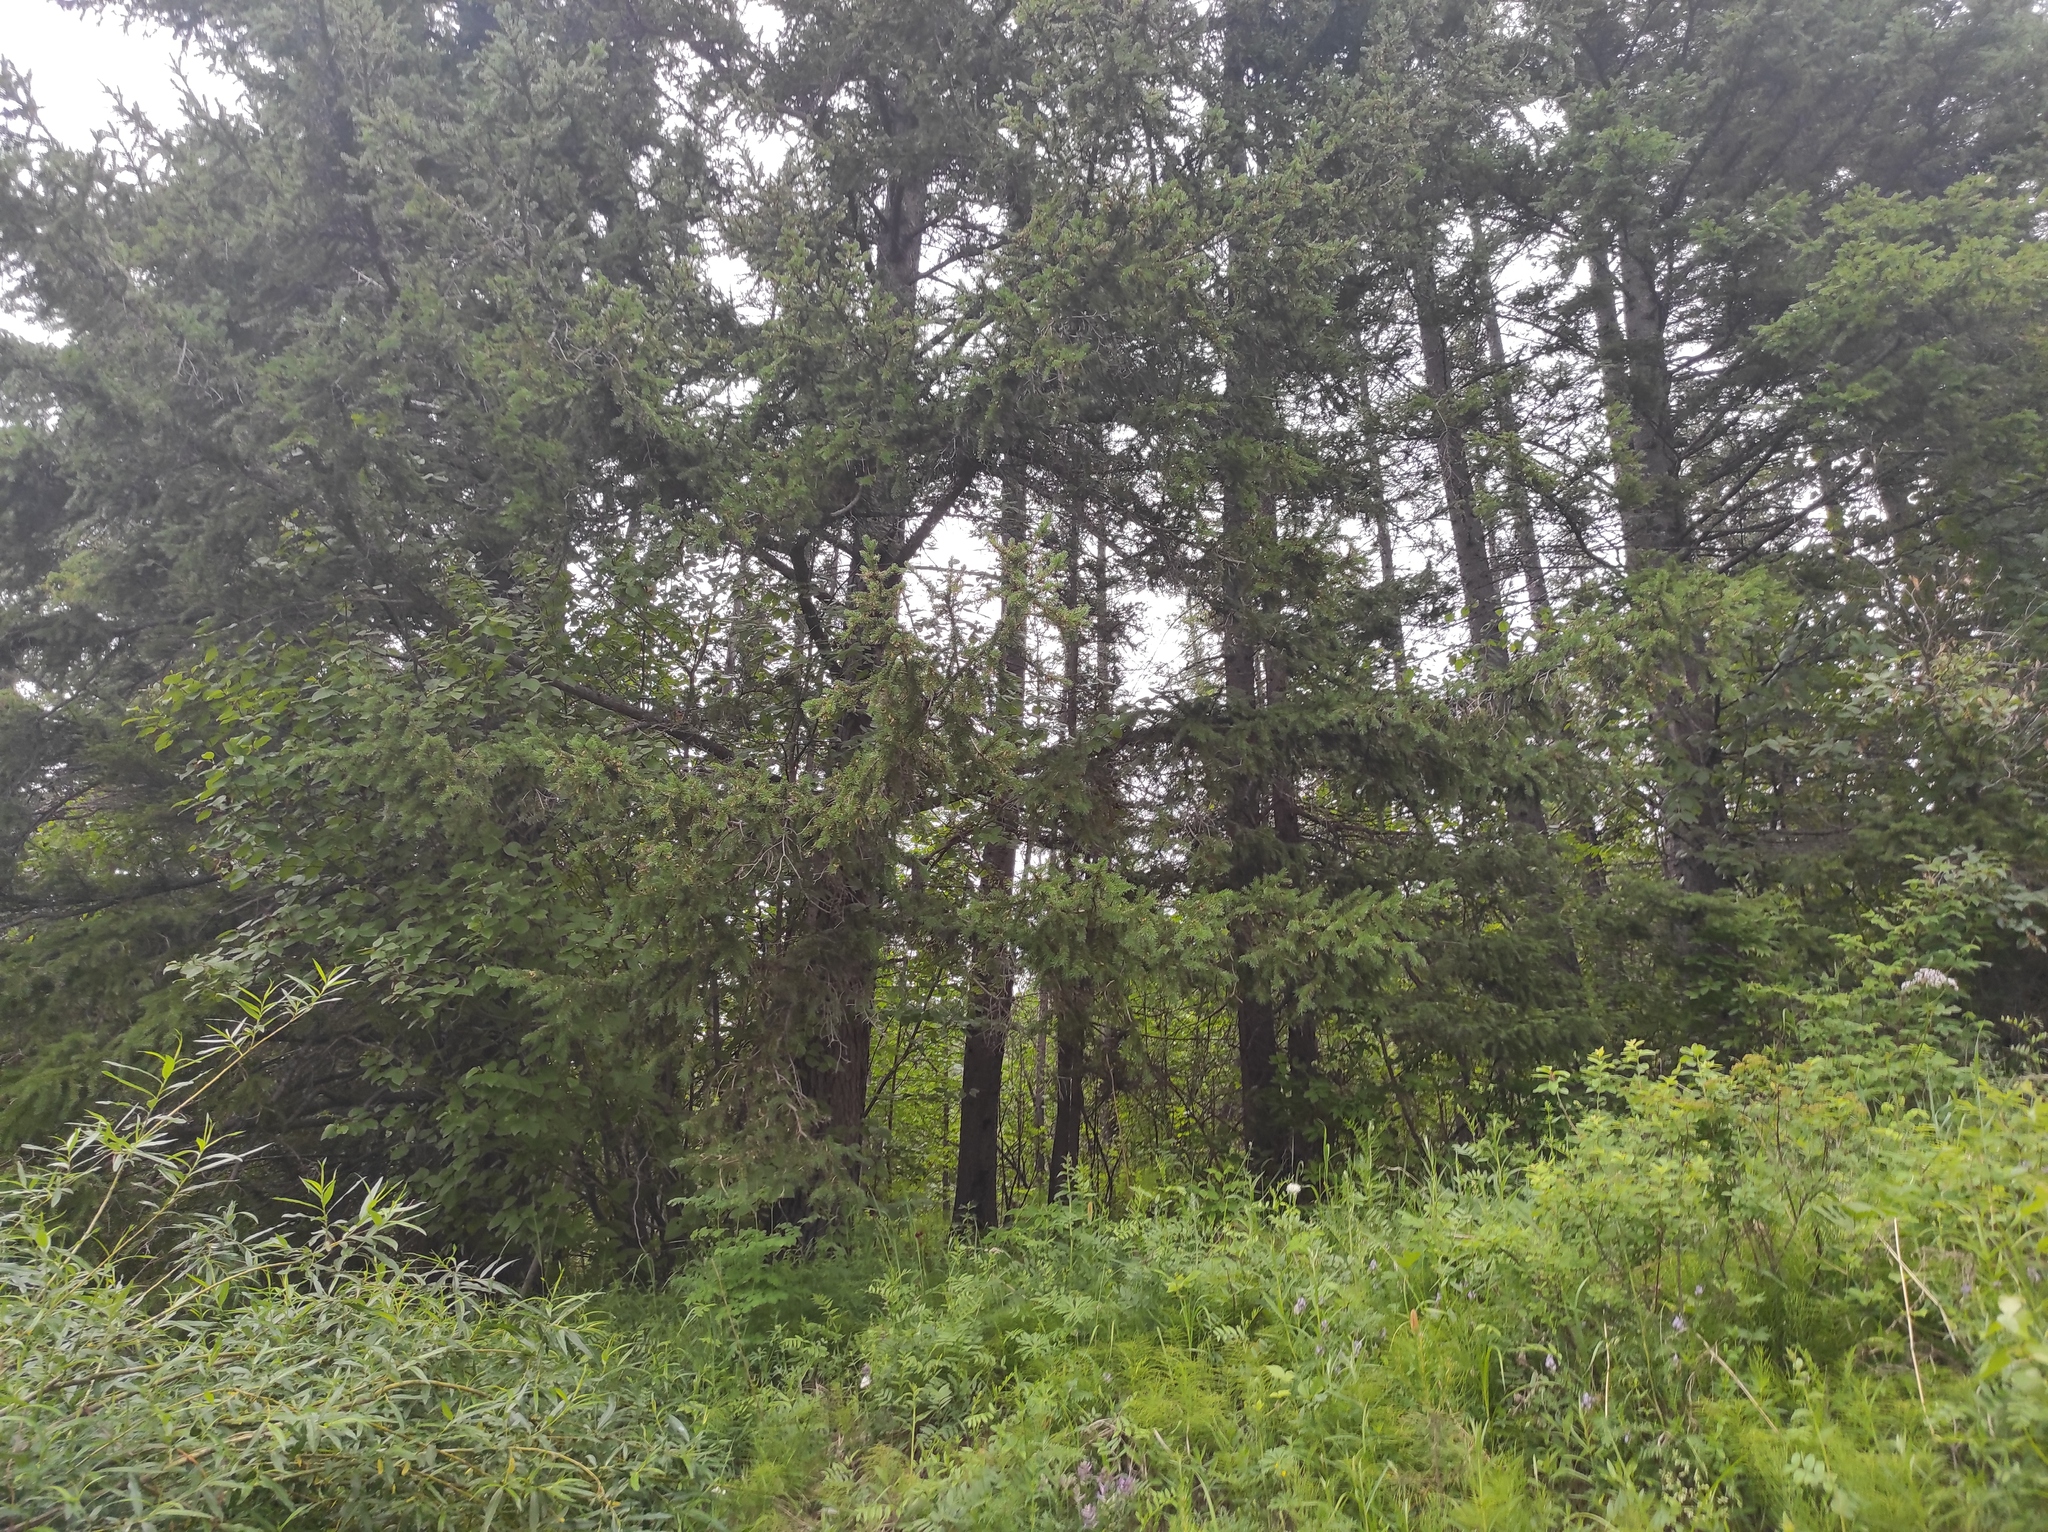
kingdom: Plantae
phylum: Tracheophyta
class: Pinopsida
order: Pinales
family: Pinaceae
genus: Picea
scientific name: Picea obovata
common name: Siberian spruce
